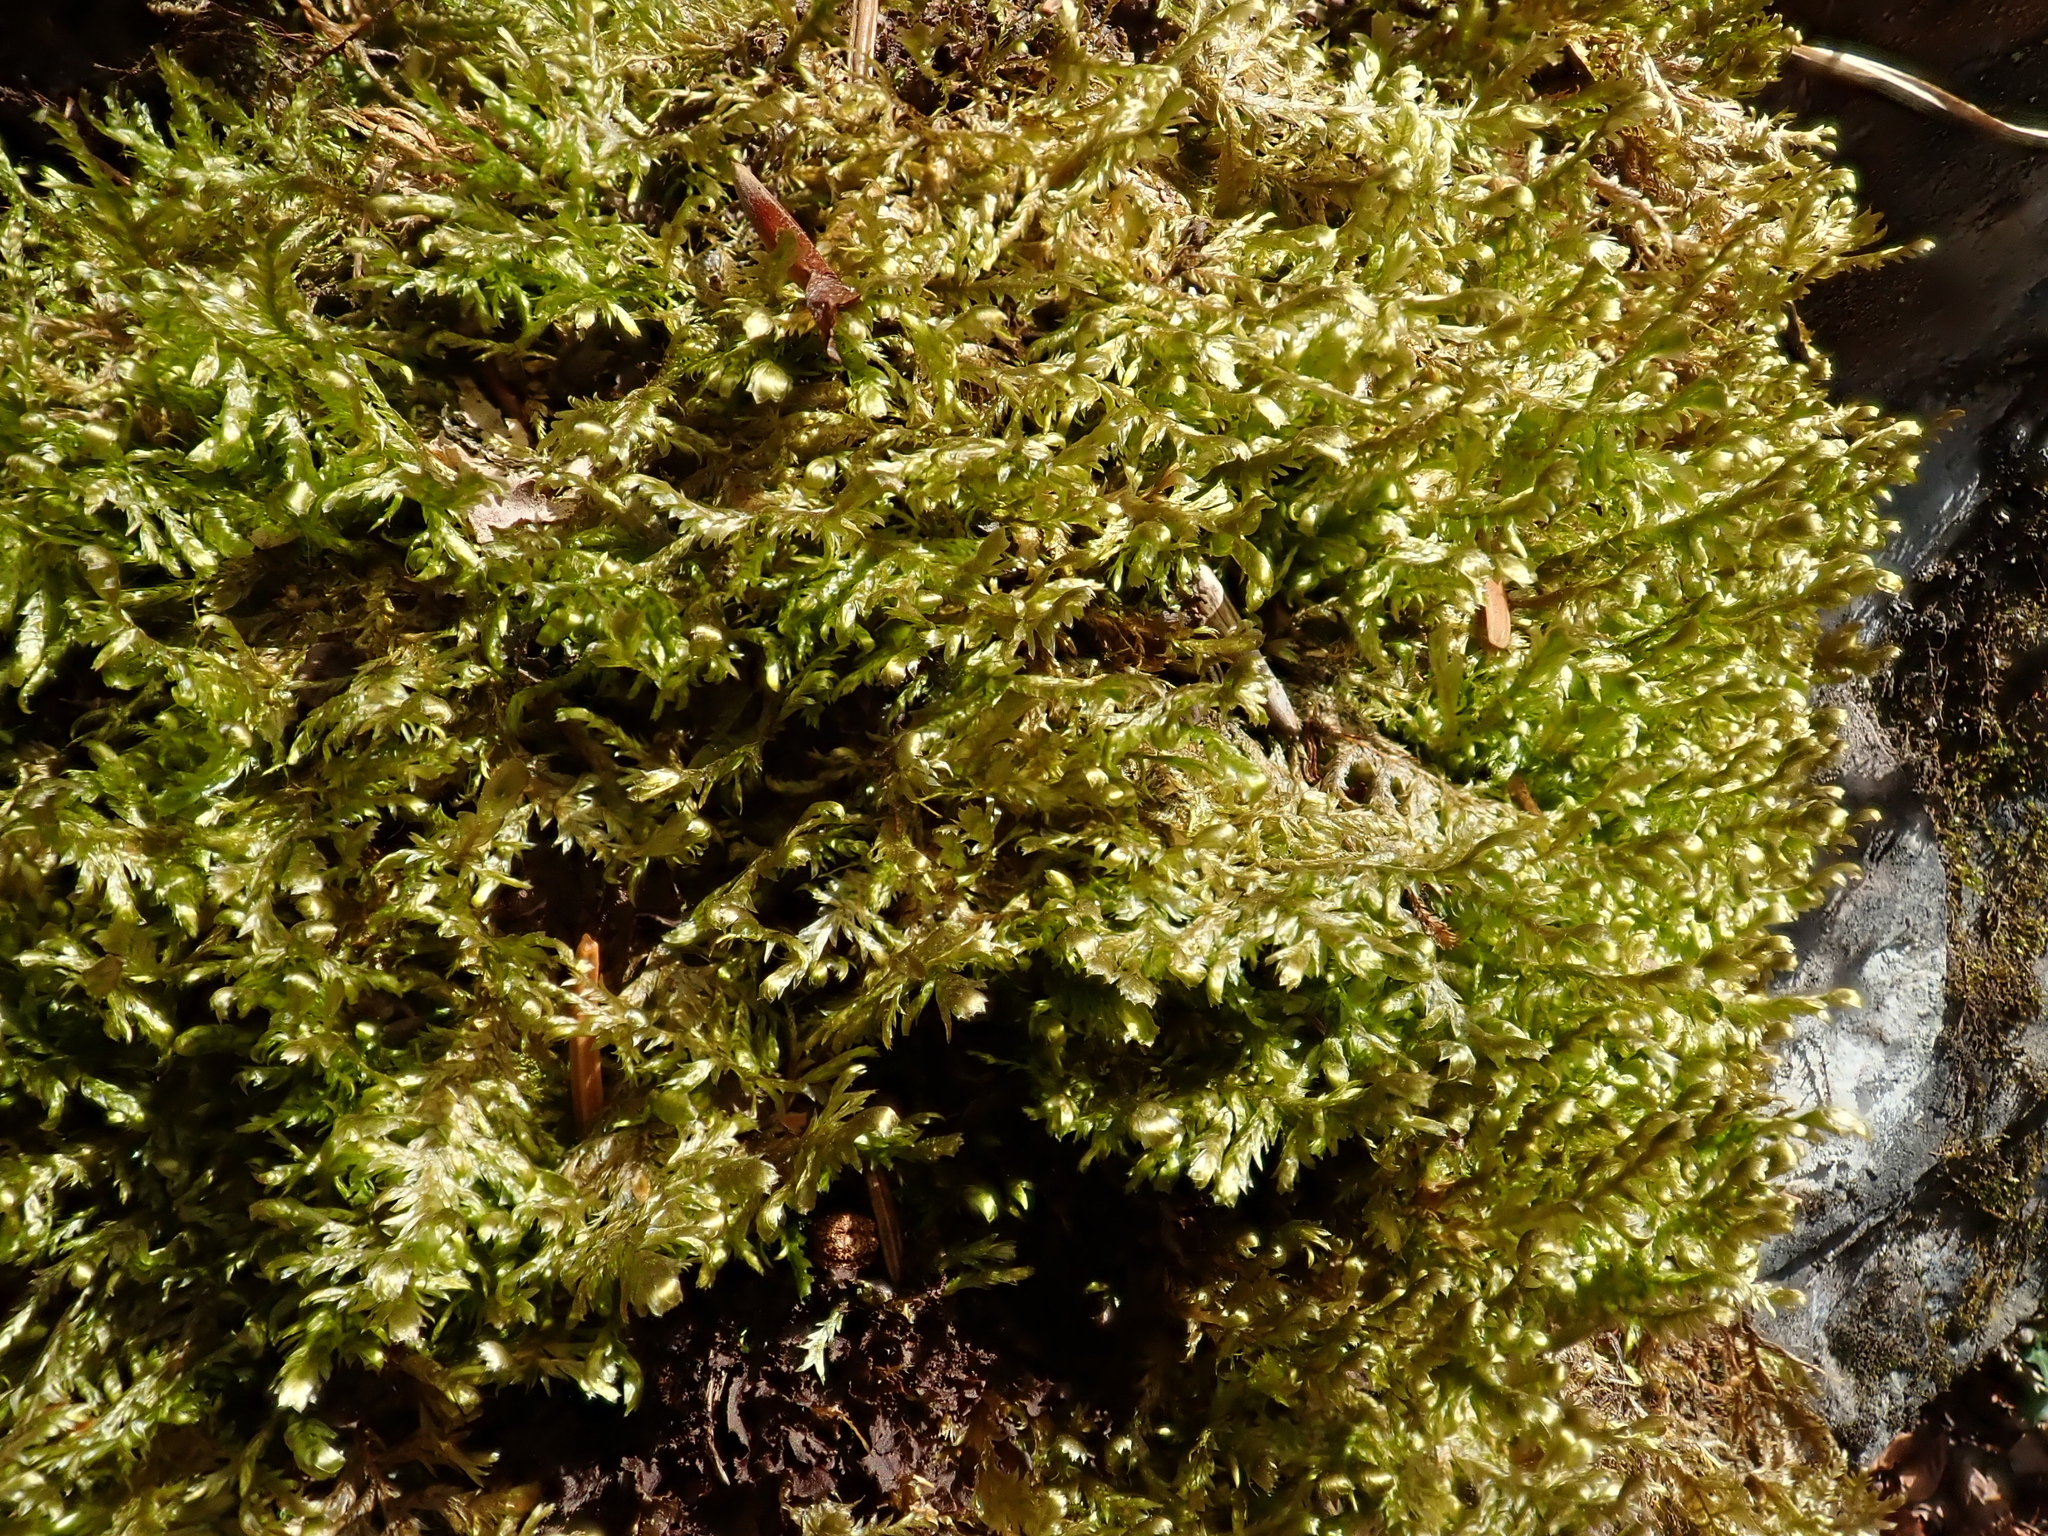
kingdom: Plantae
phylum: Bryophyta
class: Bryopsida
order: Hypnales
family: Neckeraceae
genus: Alleniella
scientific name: Alleniella complanata
